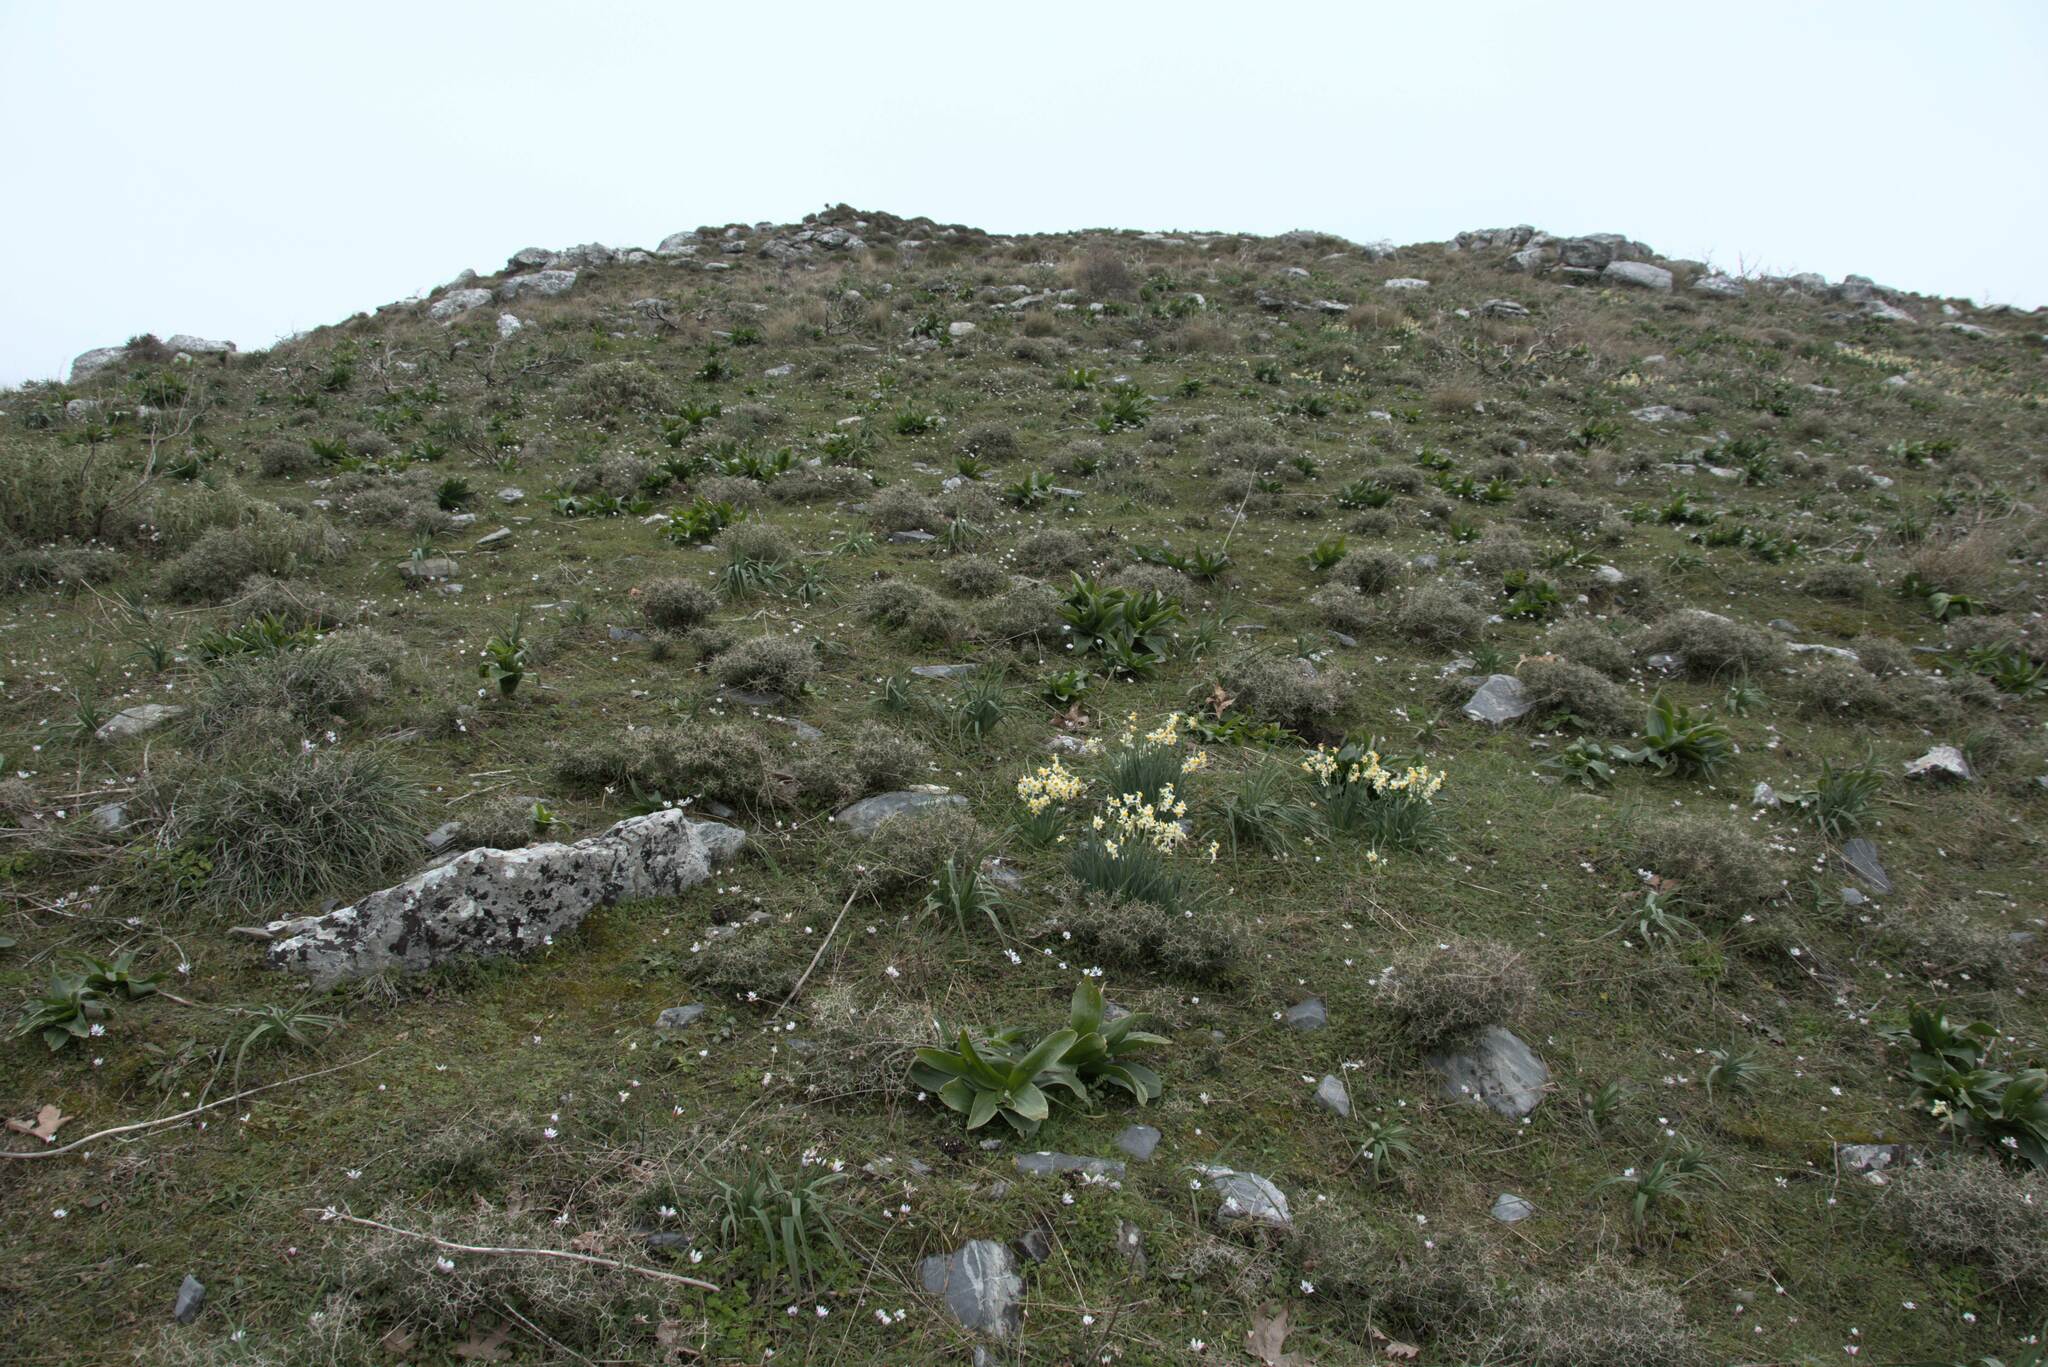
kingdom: Plantae
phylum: Tracheophyta
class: Liliopsida
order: Asparagales
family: Amaryllidaceae
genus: Narcissus
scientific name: Narcissus tazetta
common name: Bunch-flowered daffodil
